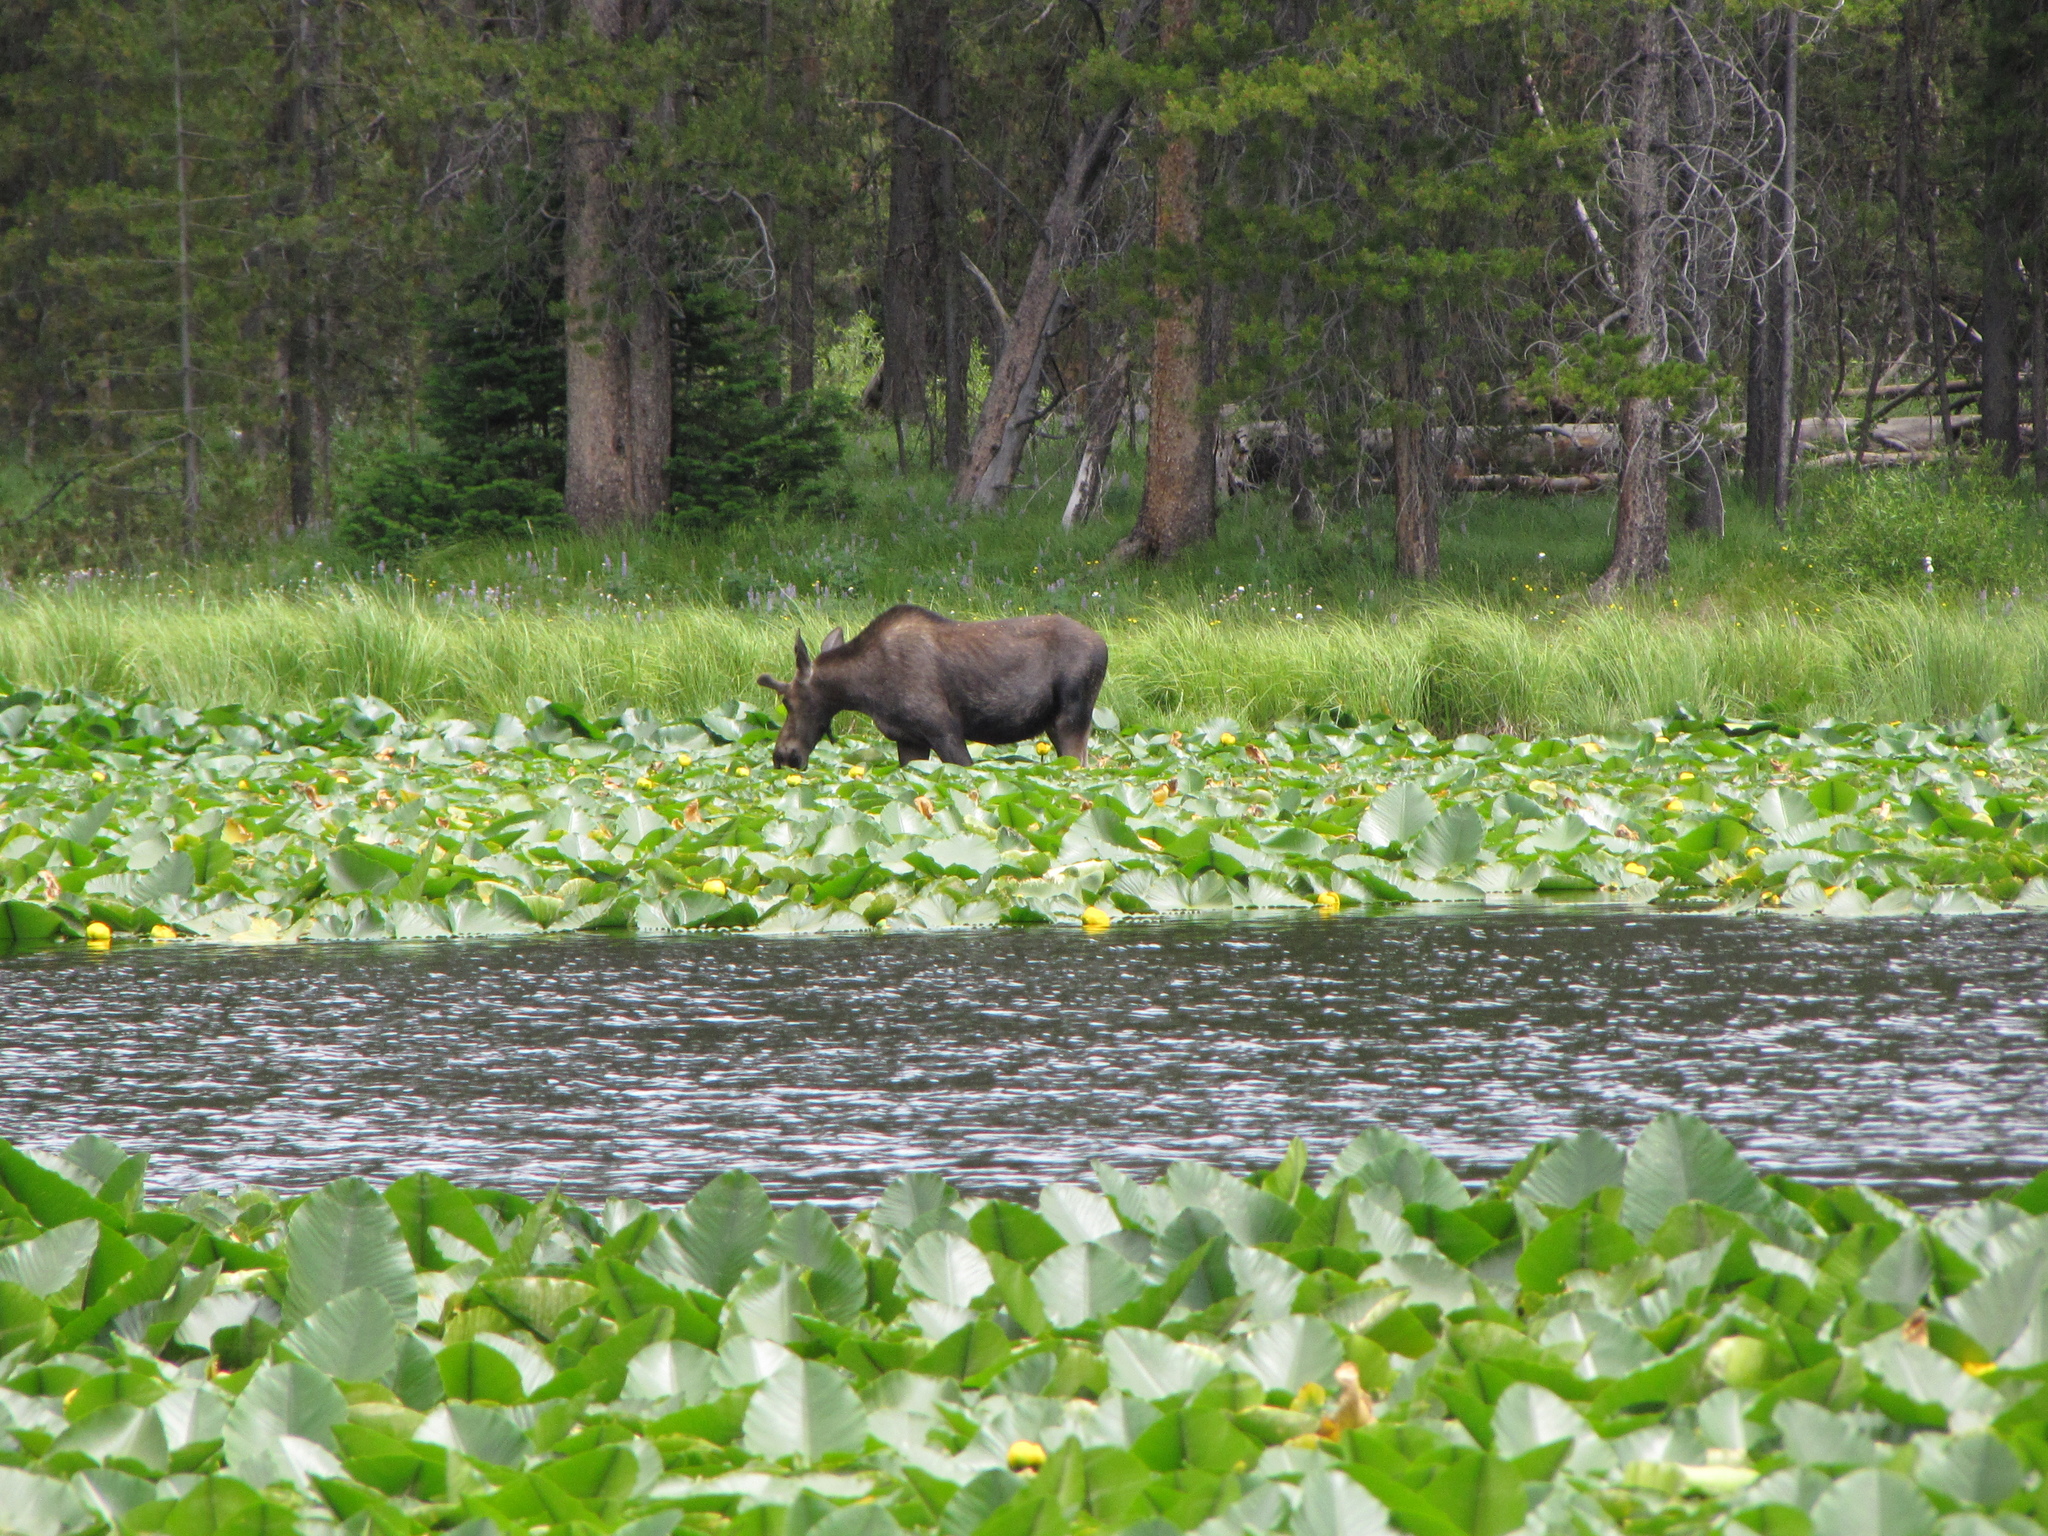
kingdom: Animalia
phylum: Chordata
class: Mammalia
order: Artiodactyla
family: Cervidae
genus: Alces
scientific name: Alces alces
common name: Moose
